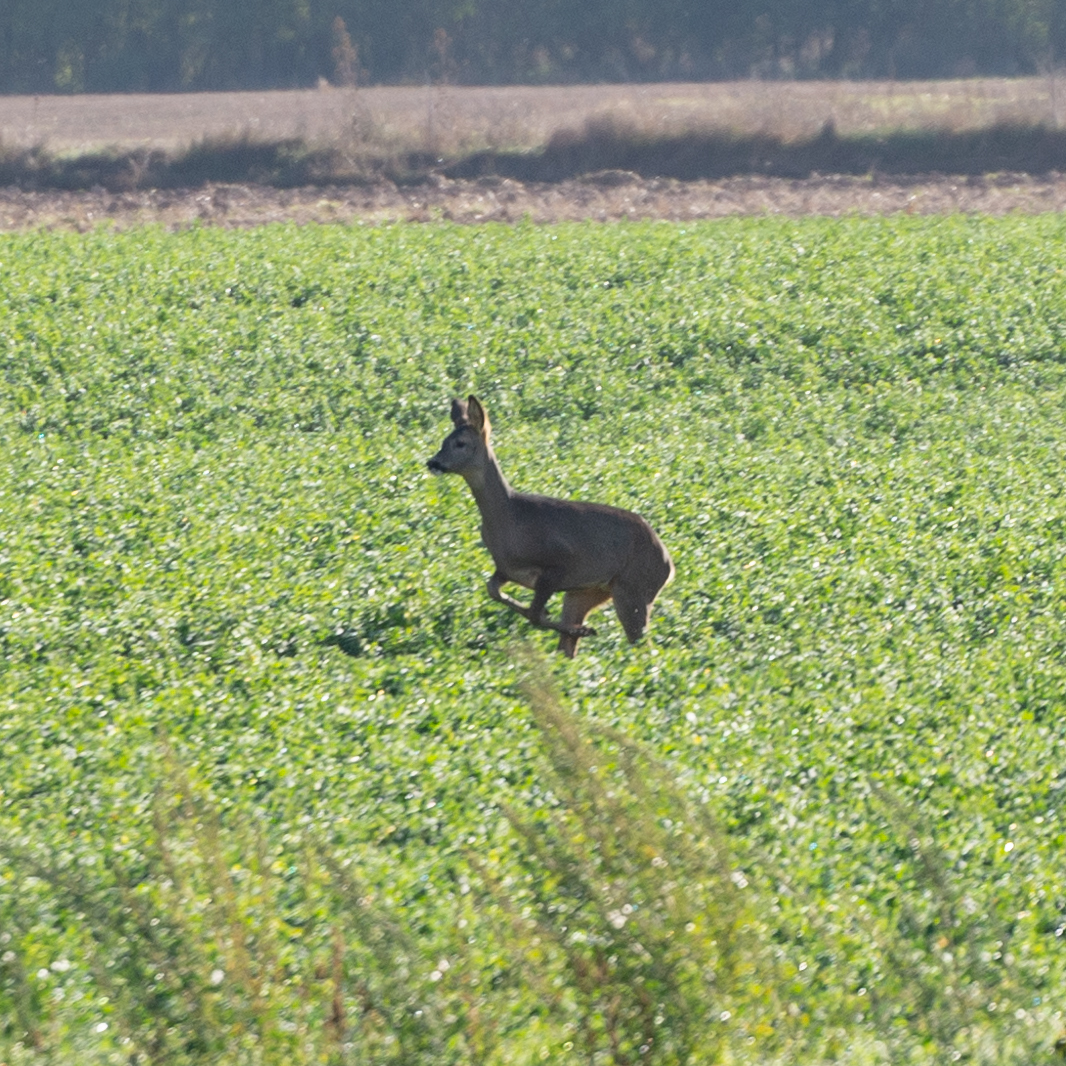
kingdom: Animalia
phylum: Chordata
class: Mammalia
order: Artiodactyla
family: Cervidae
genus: Capreolus
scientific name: Capreolus capreolus
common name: Western roe deer
